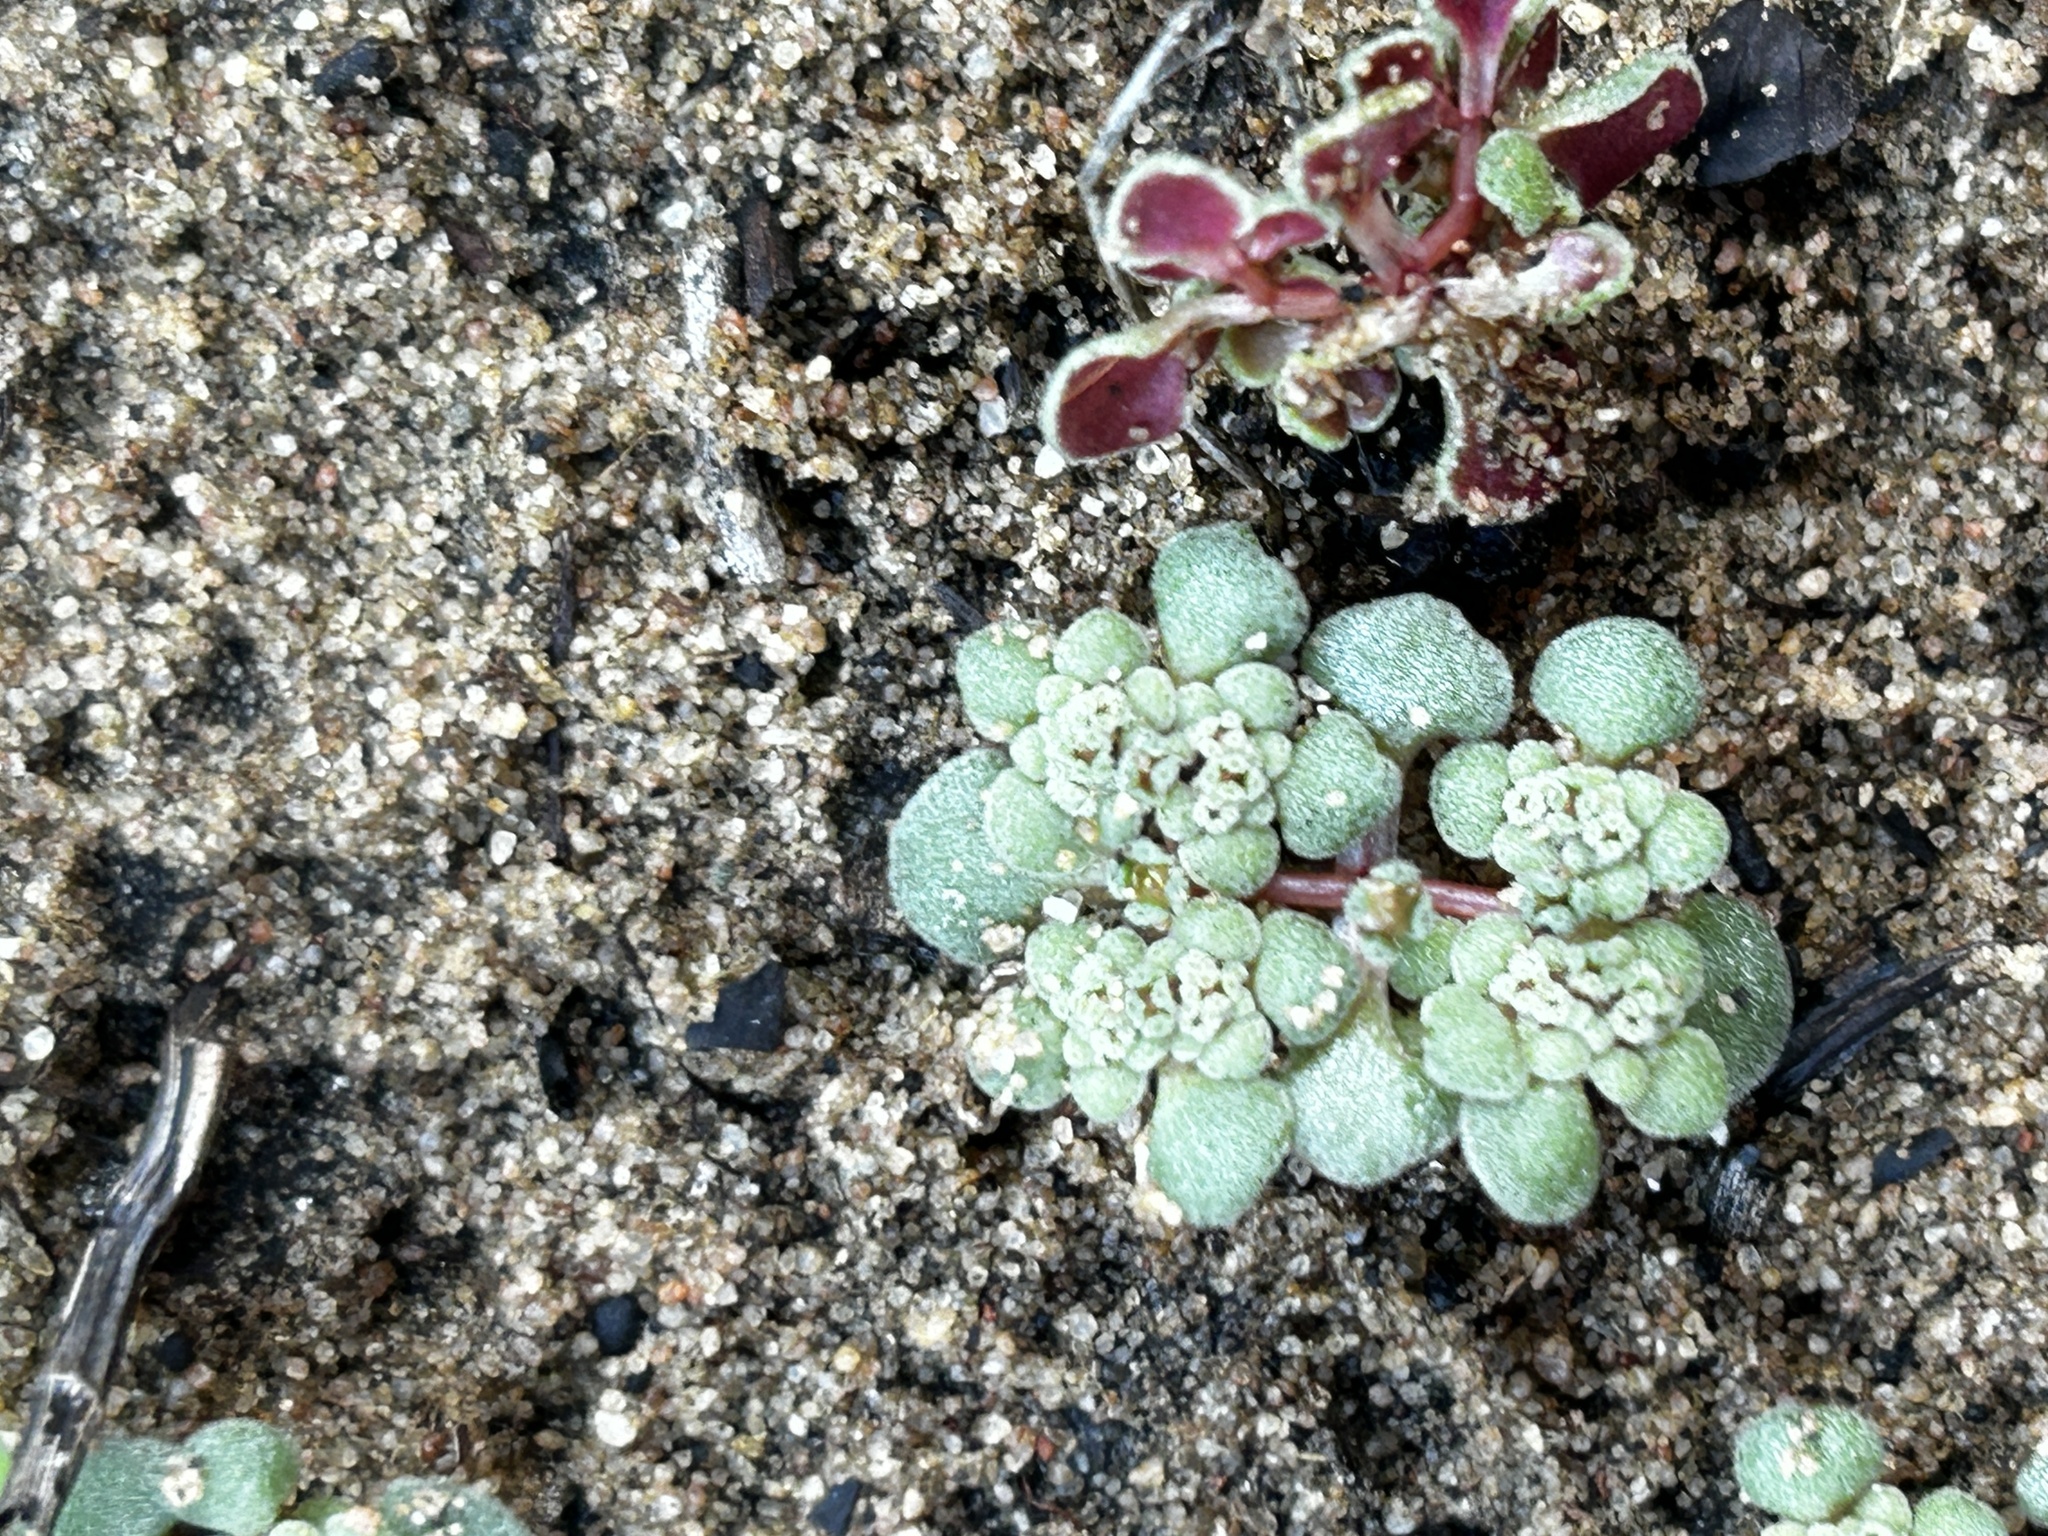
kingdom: Plantae
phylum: Tracheophyta
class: Magnoliopsida
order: Saxifragales
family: Crassulaceae
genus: Crassula
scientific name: Crassula umbellata
